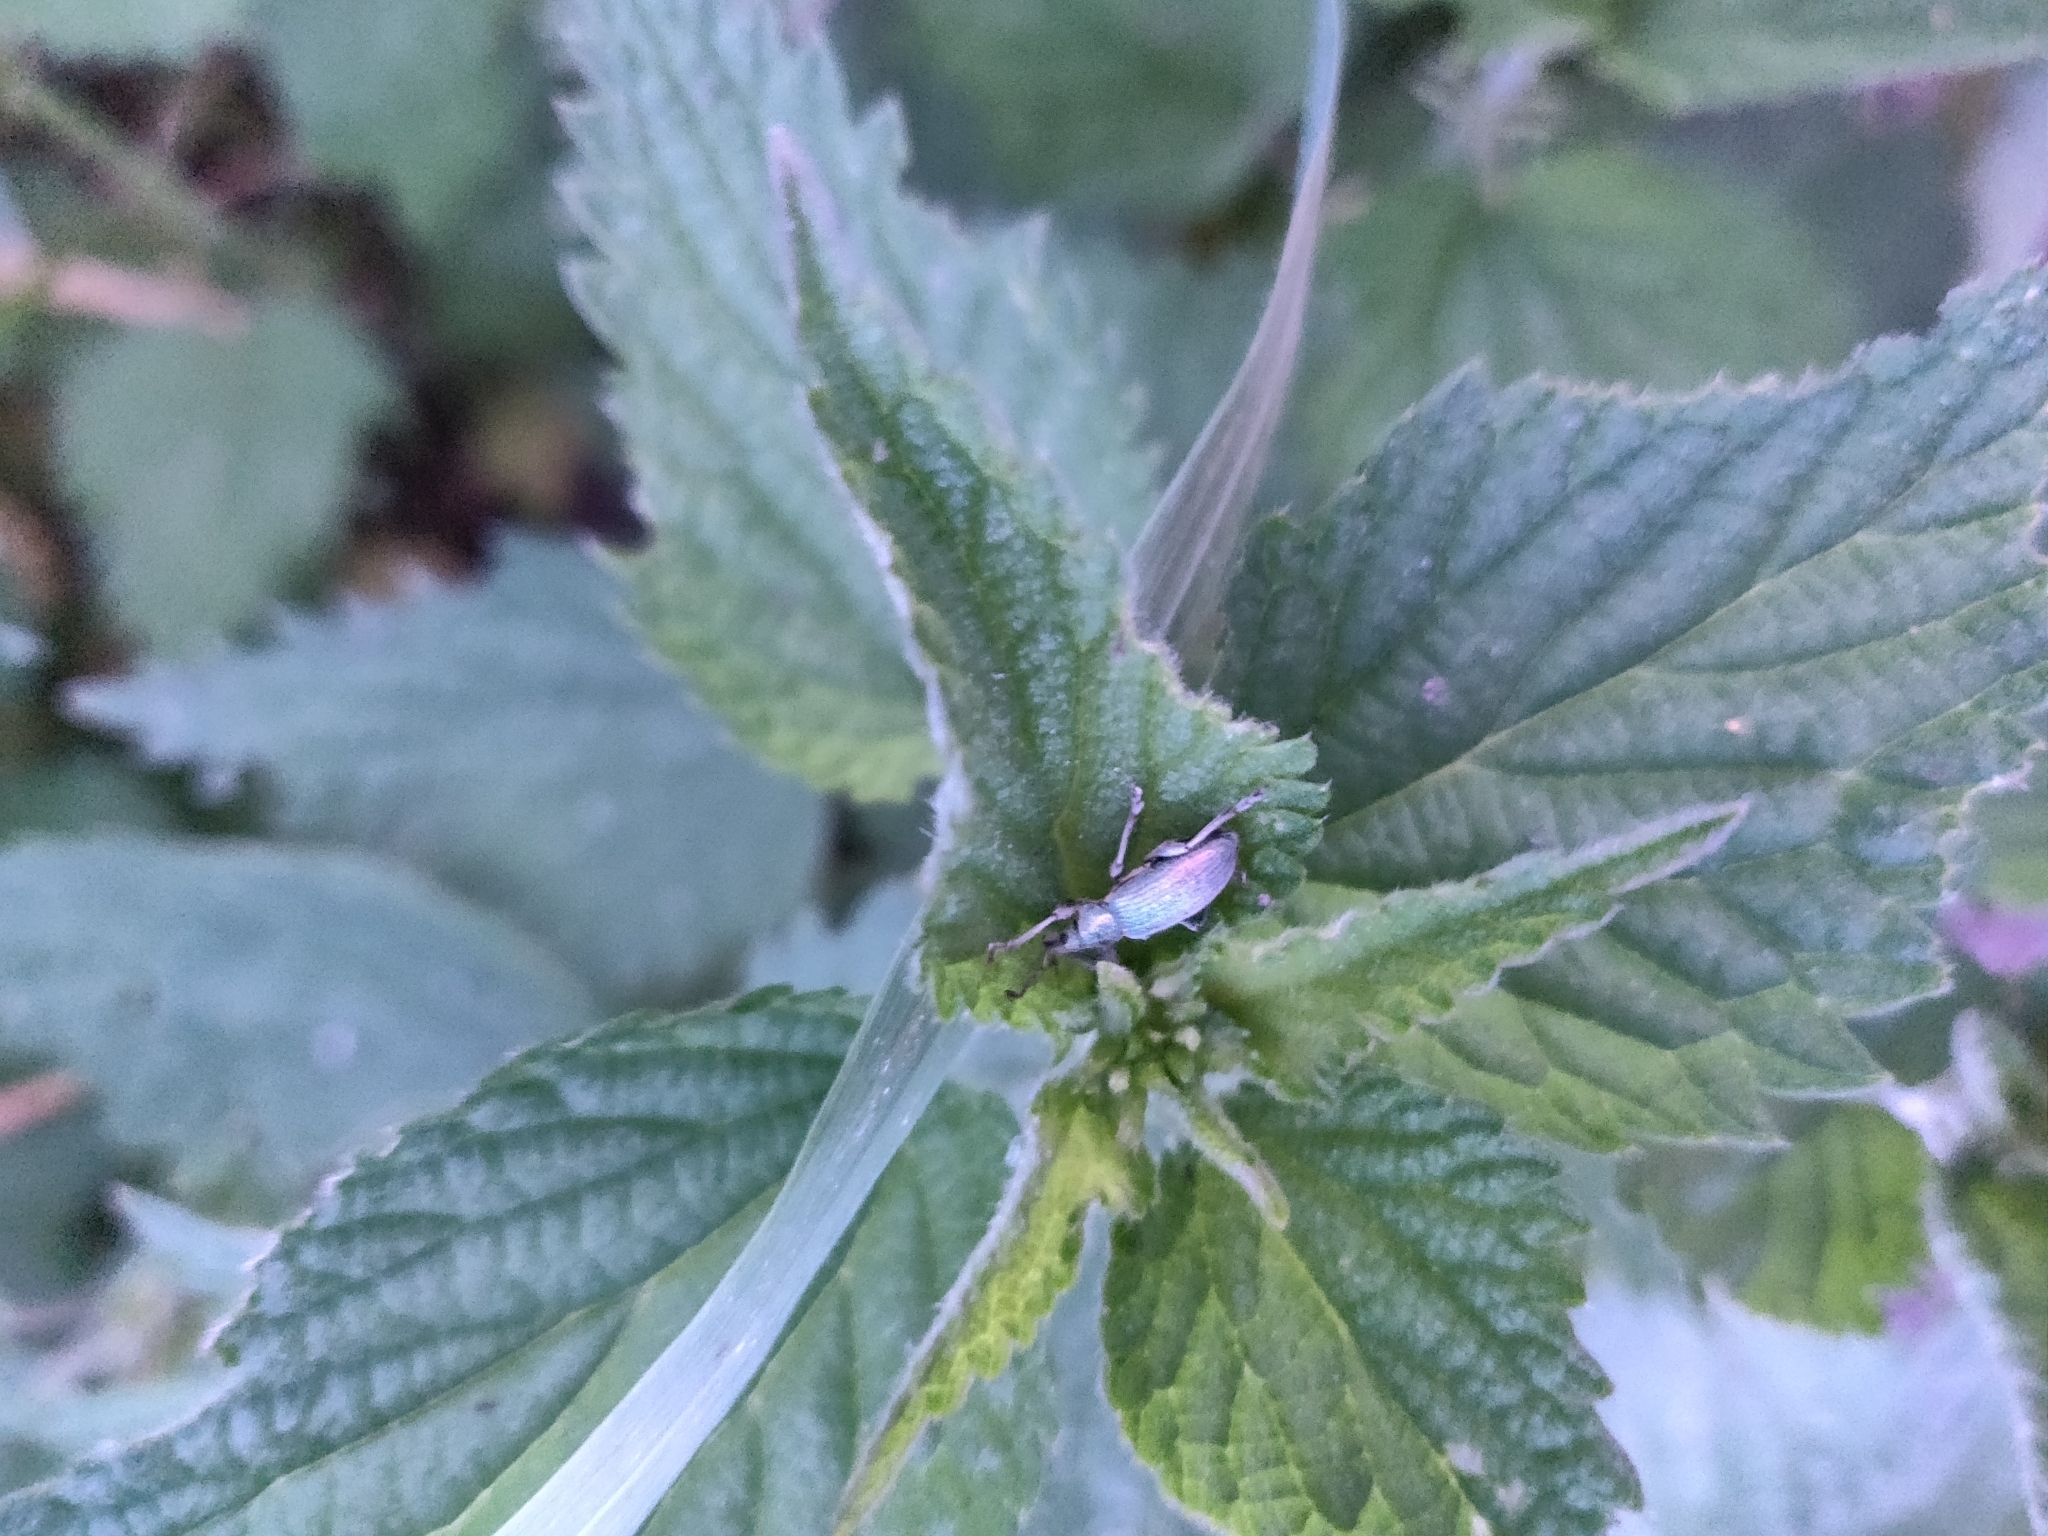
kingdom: Animalia
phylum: Arthropoda
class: Insecta
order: Coleoptera
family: Curculionidae
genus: Phyllobius
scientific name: Phyllobius pomaceus
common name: Green nettle weevil
